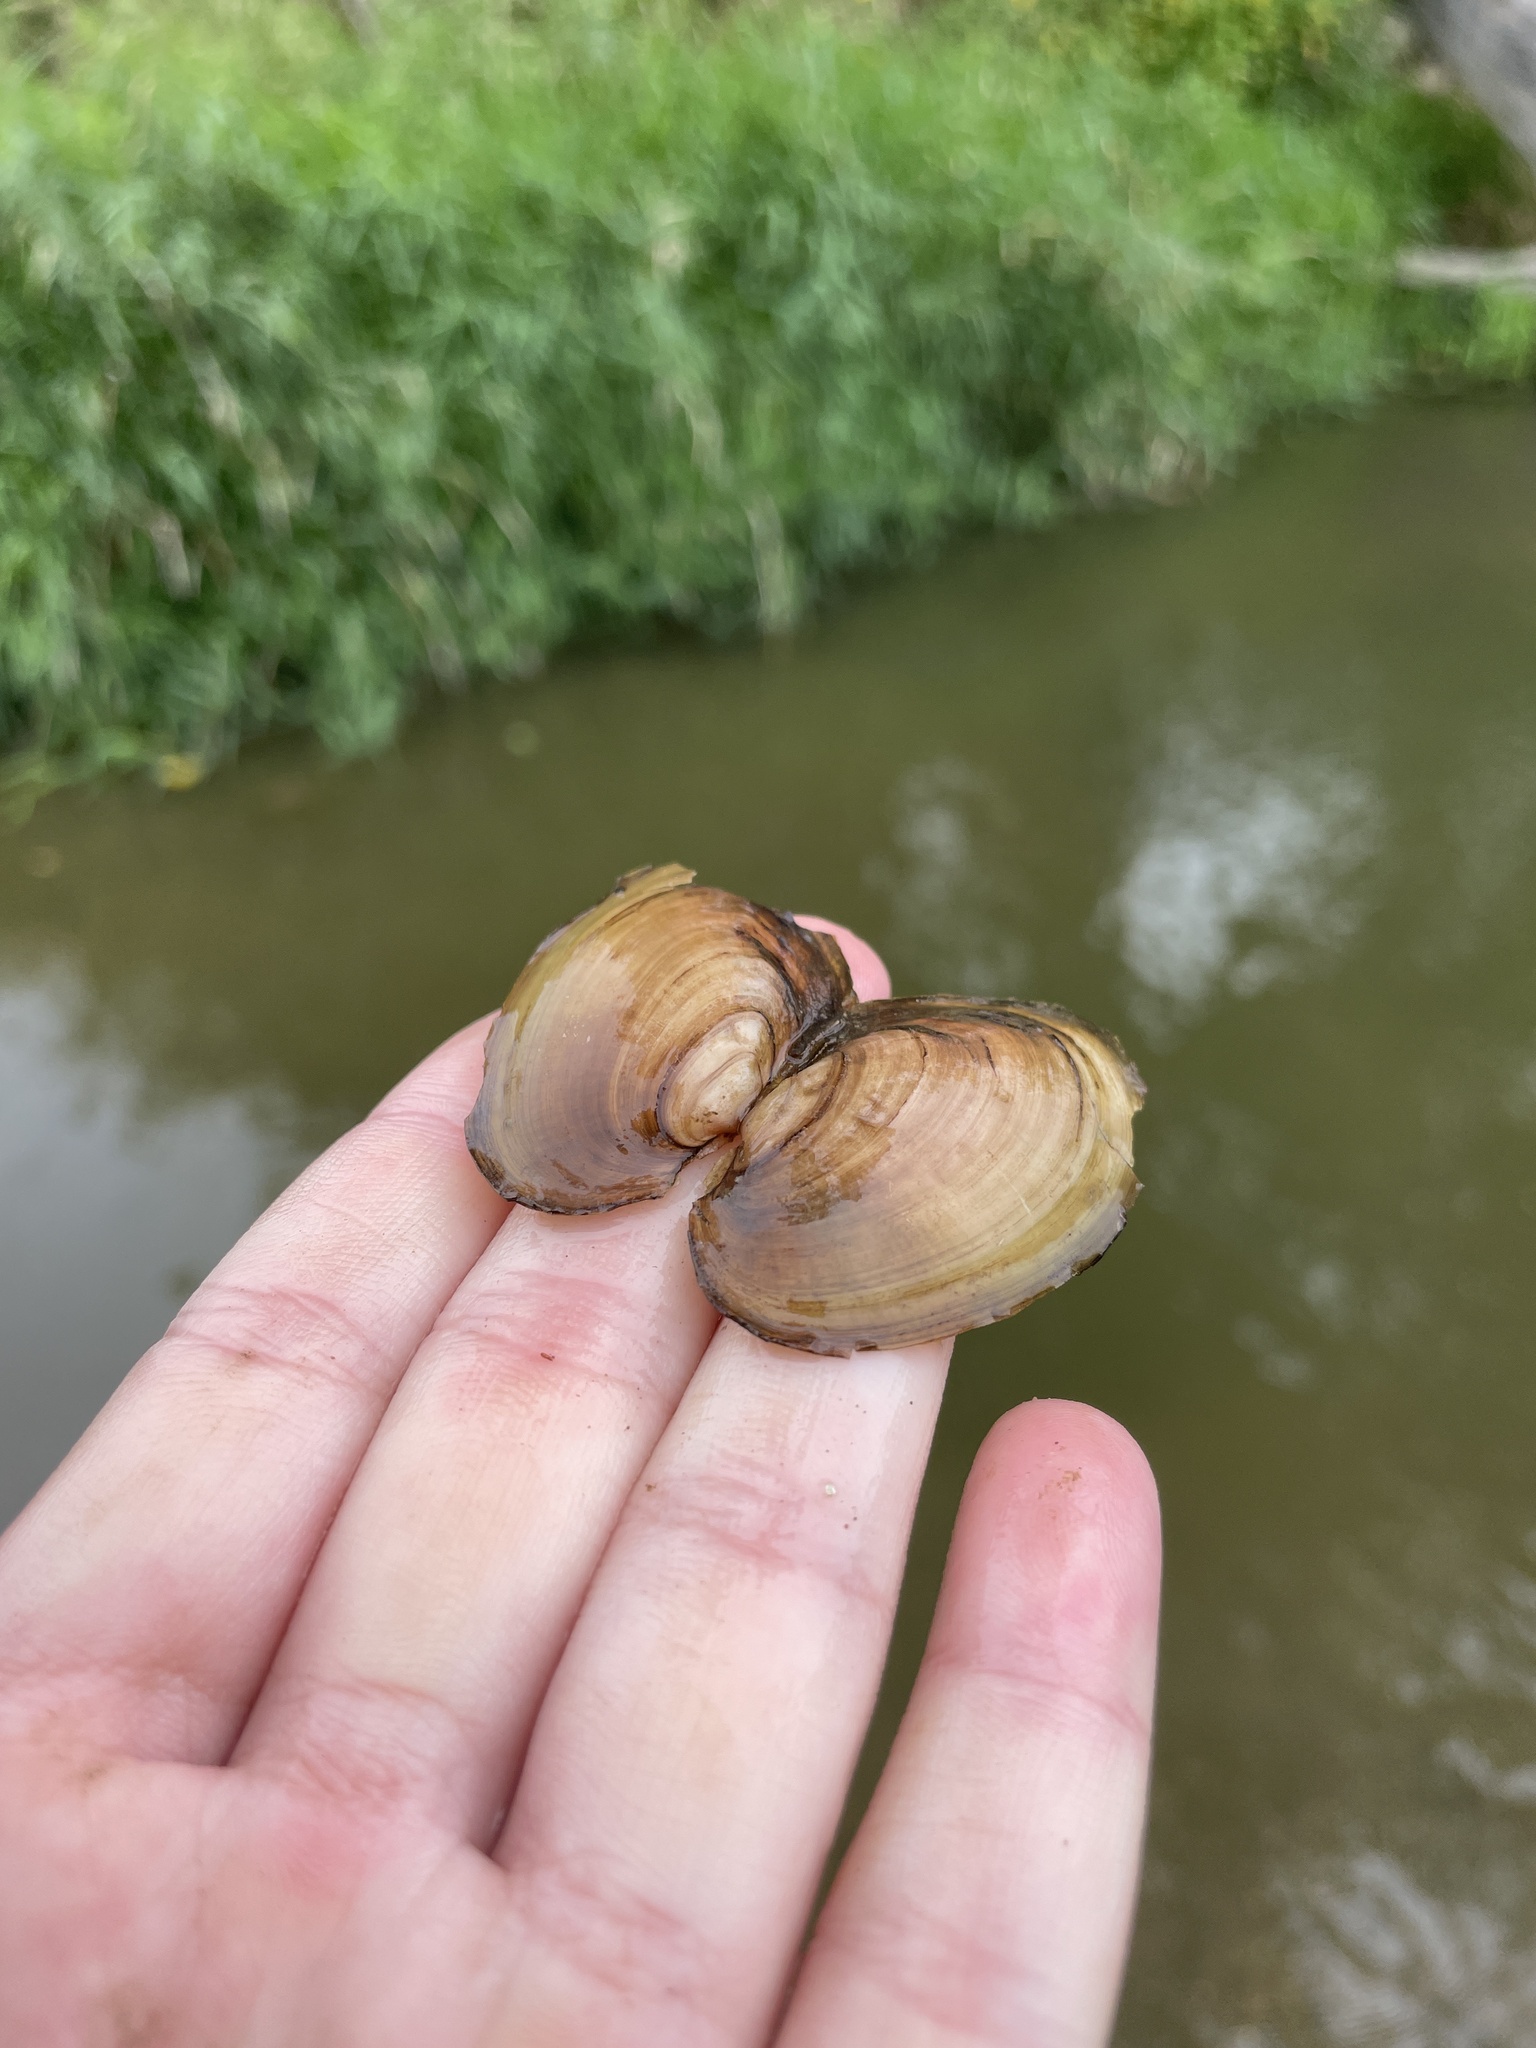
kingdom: Animalia
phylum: Mollusca
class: Bivalvia
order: Unionida
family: Unionidae
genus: Potamilus
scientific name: Potamilus fragilis
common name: Fragile papershell
